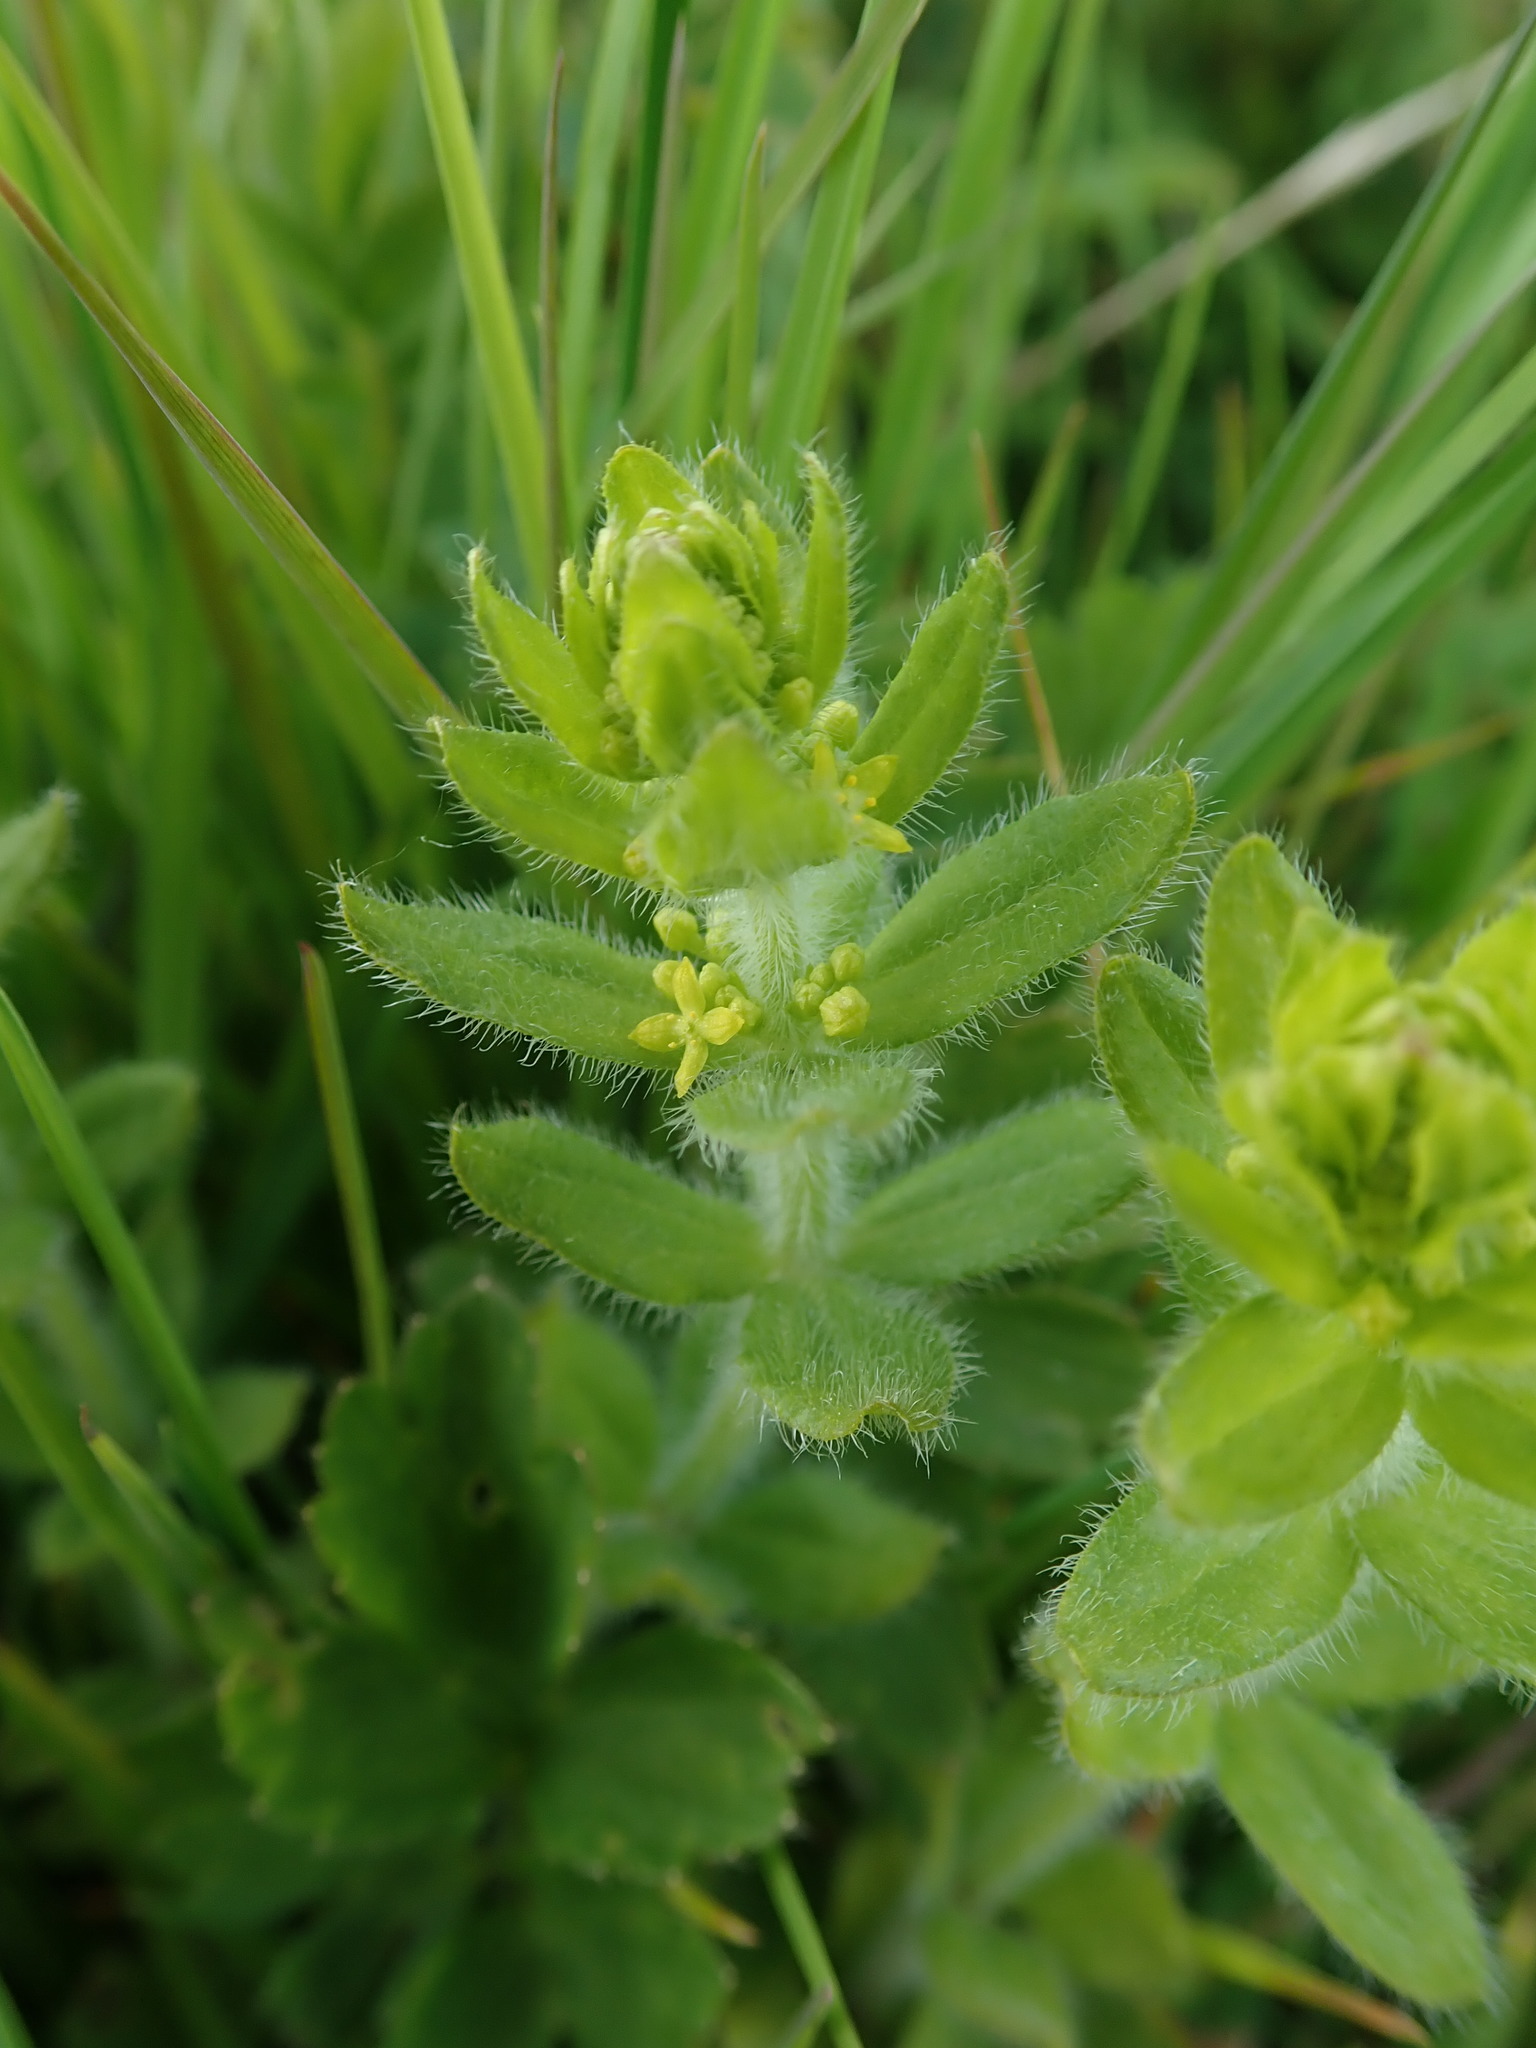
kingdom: Plantae
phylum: Tracheophyta
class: Magnoliopsida
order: Gentianales
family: Rubiaceae
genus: Cruciata
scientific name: Cruciata laevipes
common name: Crosswort
